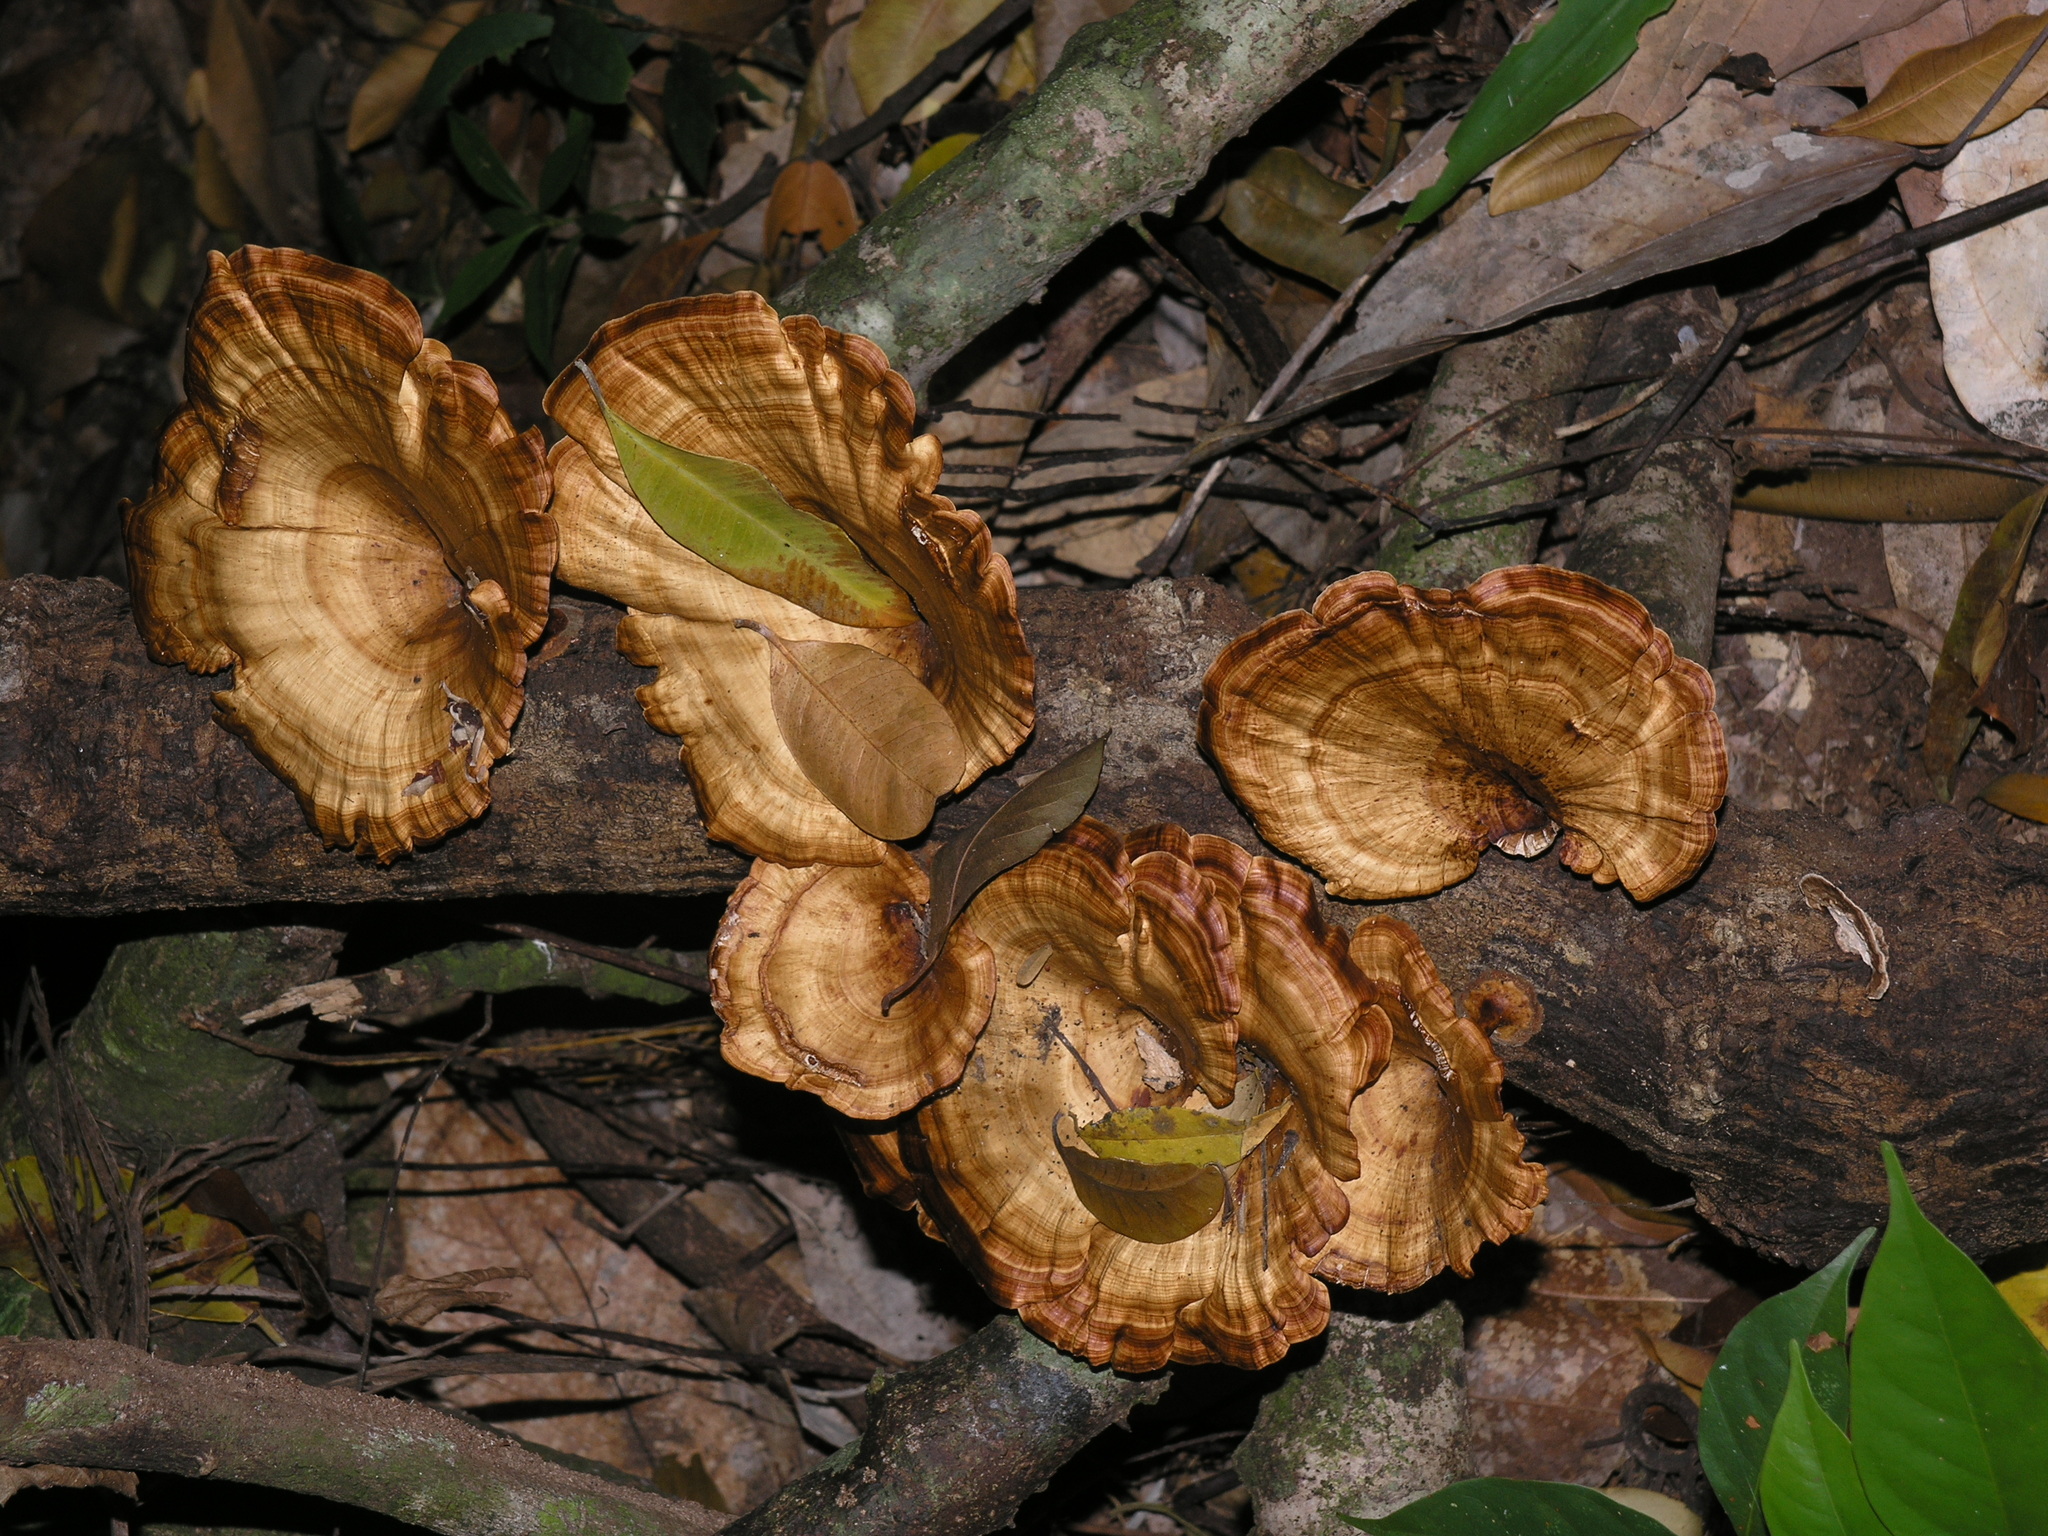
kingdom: Fungi
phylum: Basidiomycota
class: Agaricomycetes
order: Polyporales
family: Polyporaceae
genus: Microporus
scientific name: Microporus xanthopus
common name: Yellow-stemmed micropore
